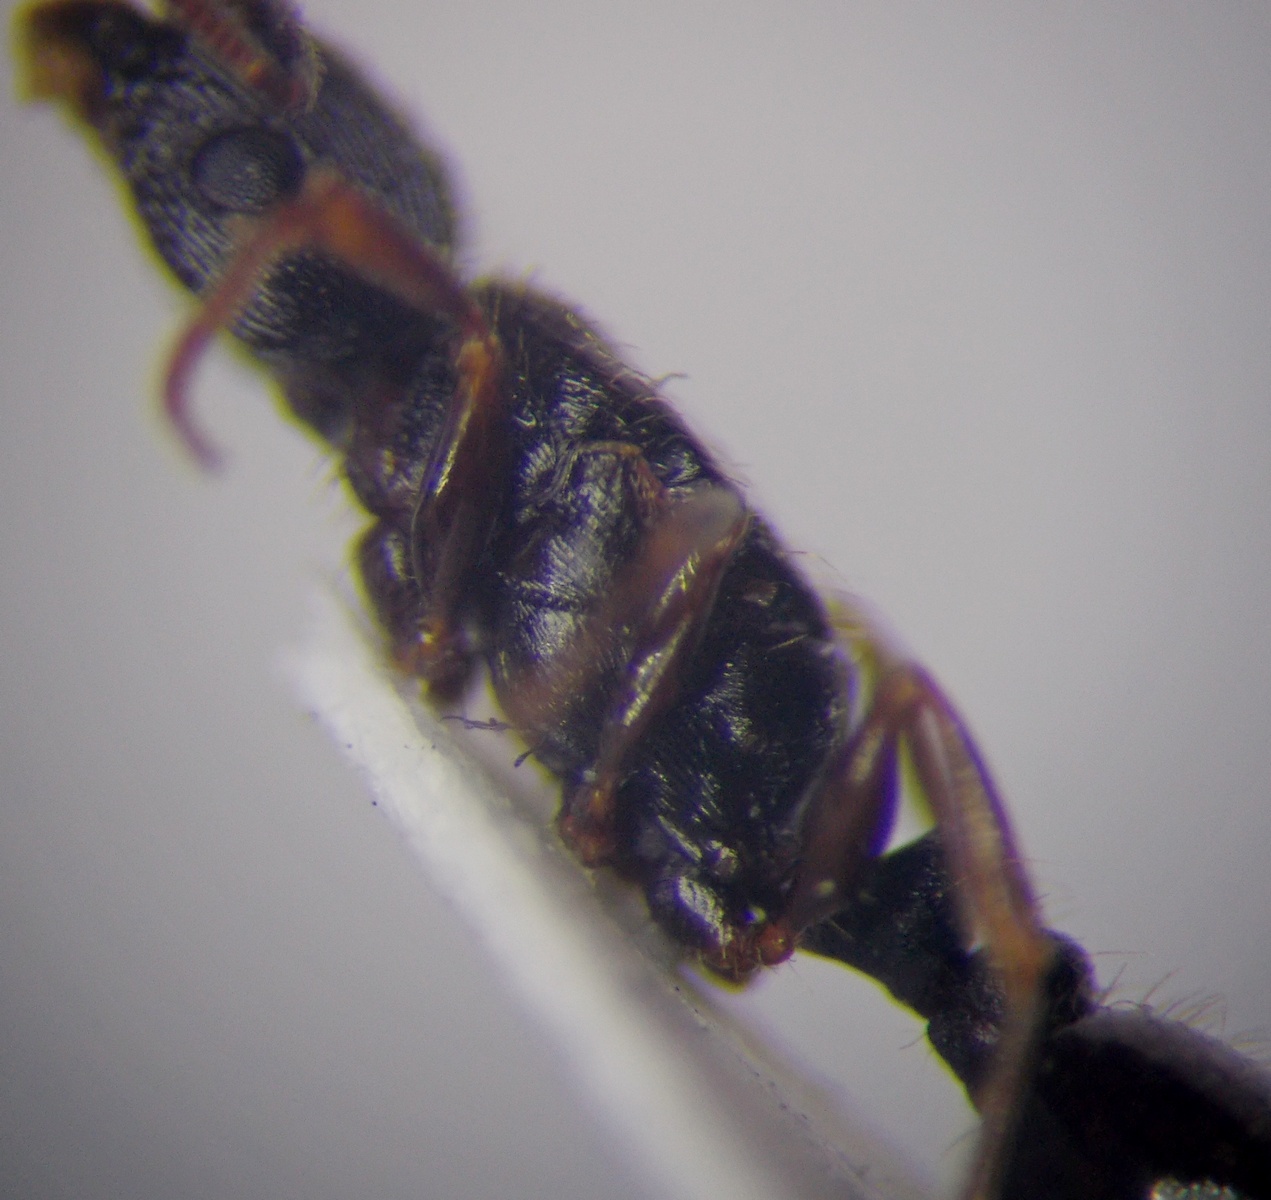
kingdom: Animalia
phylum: Arthropoda
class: Insecta
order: Hymenoptera
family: Formicidae
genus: Tetramorium
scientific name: Tetramorium inerme
